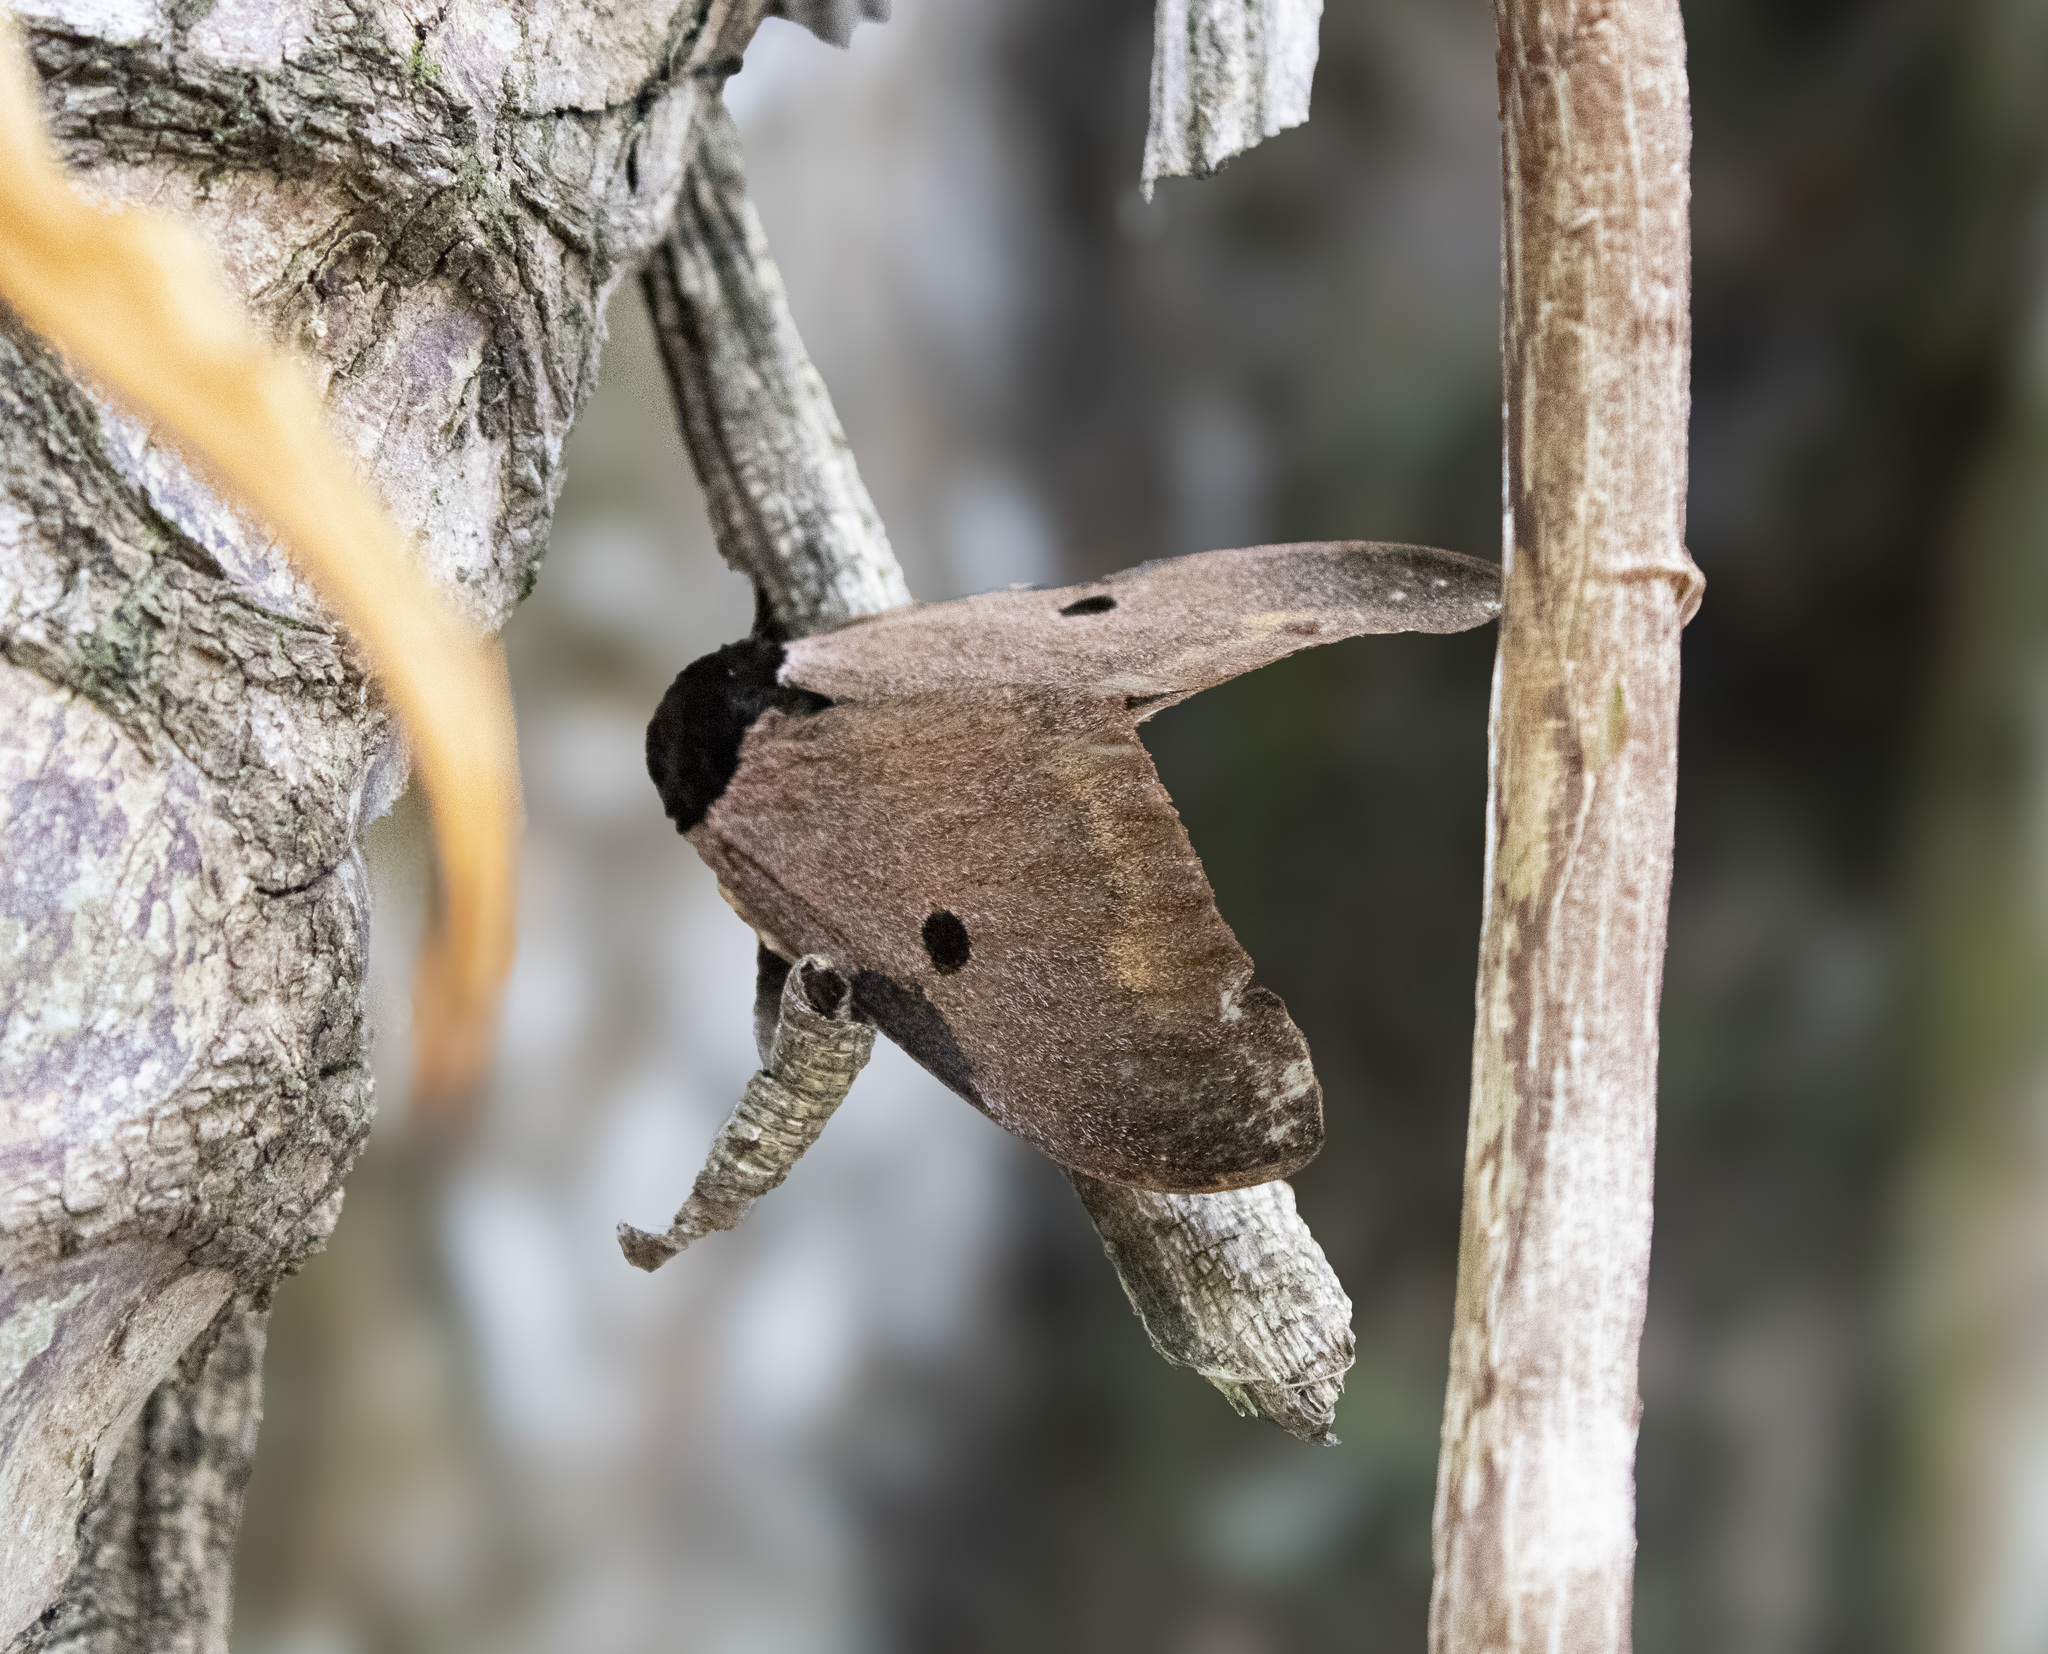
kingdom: Animalia
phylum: Arthropoda
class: Insecta
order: Lepidoptera
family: Saturniidae
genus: Dirphia
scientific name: Dirphia fornax
